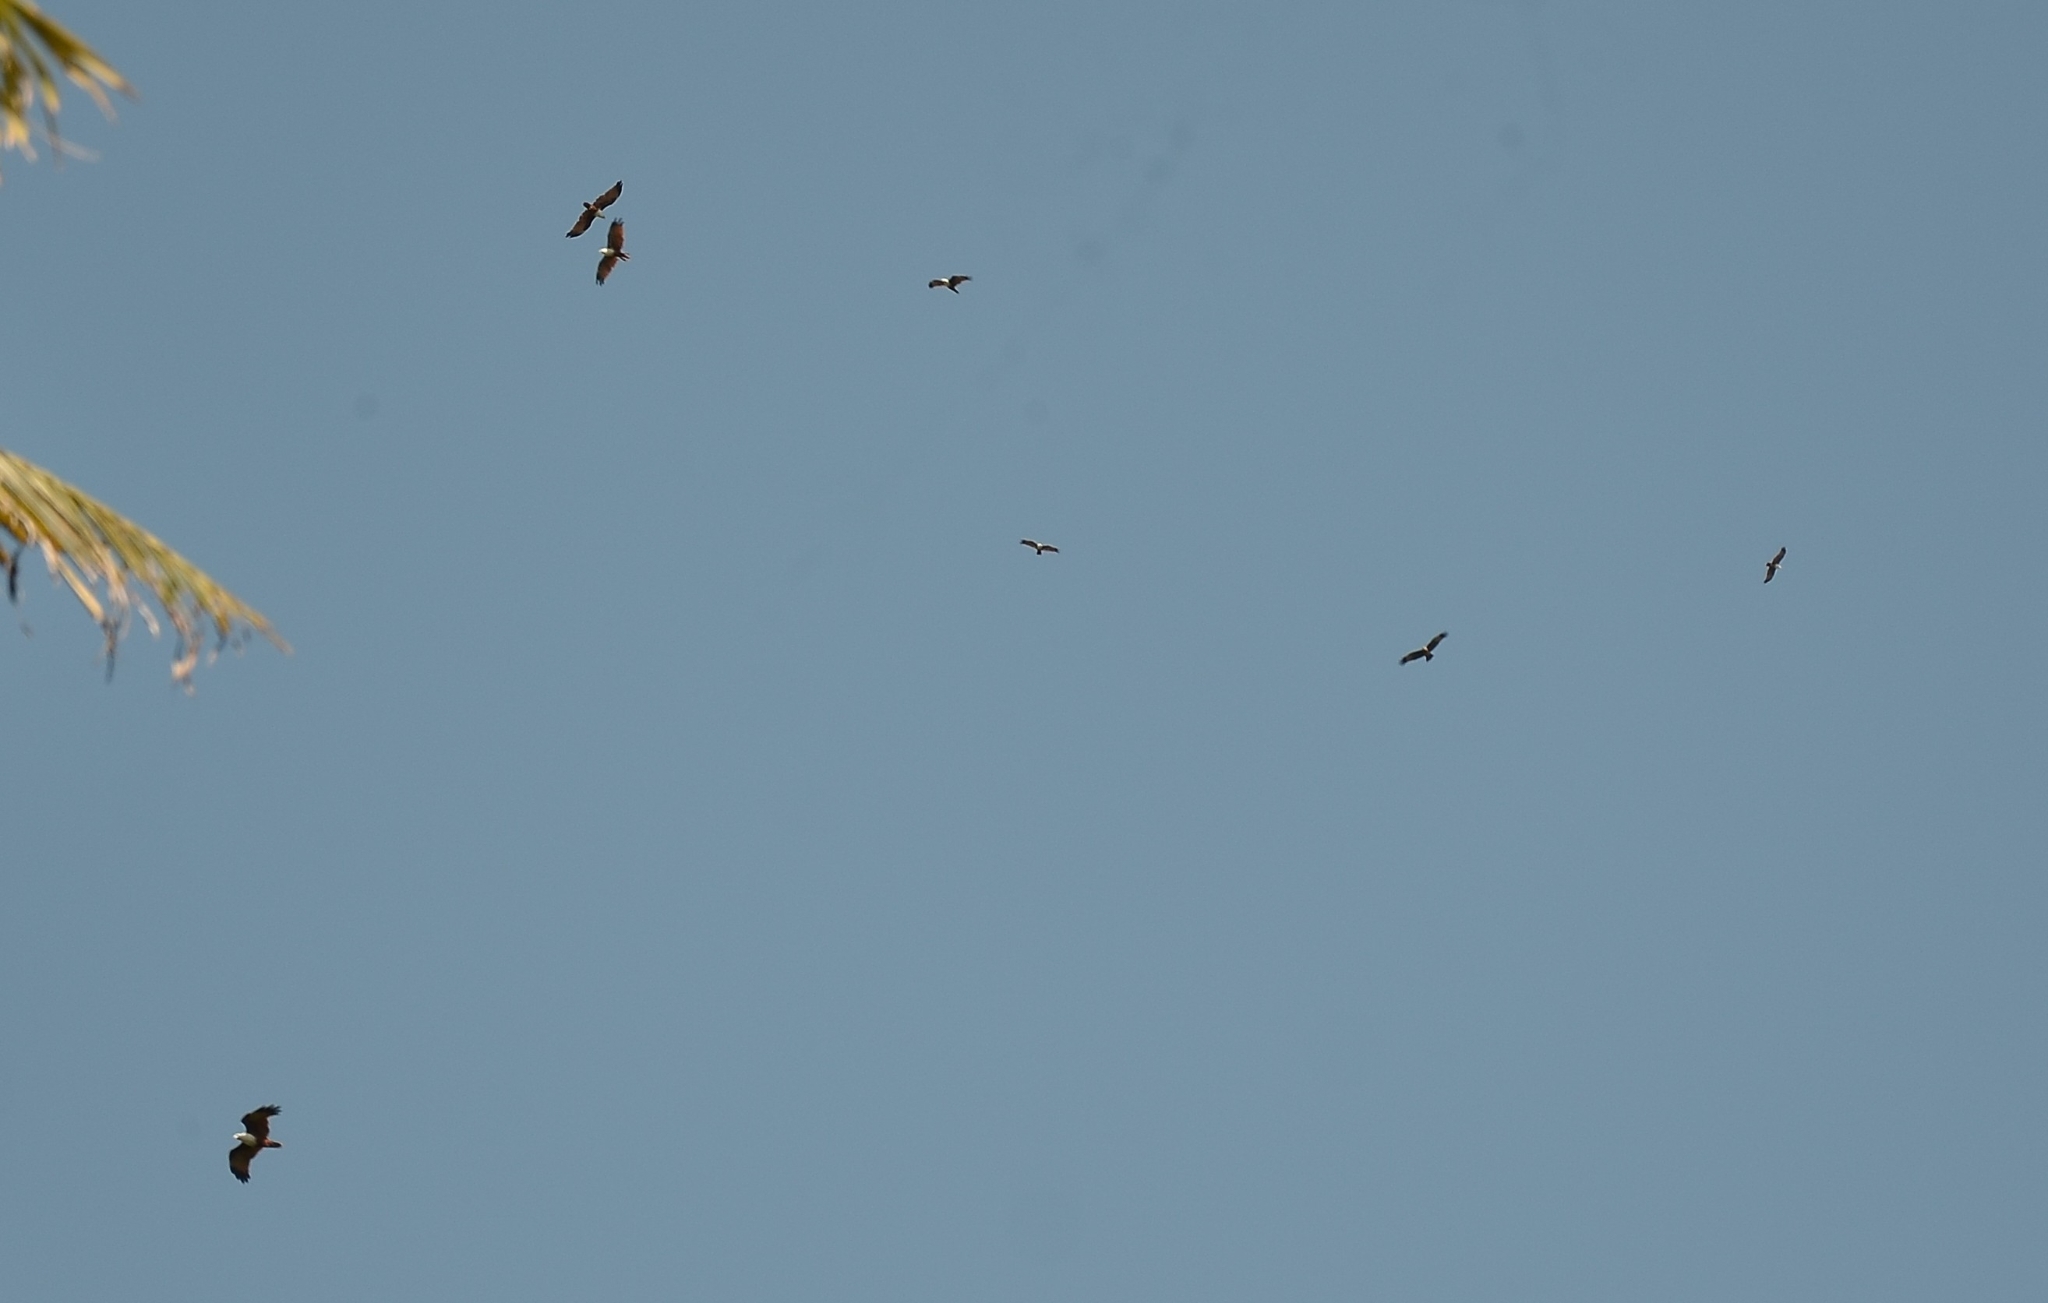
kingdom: Animalia
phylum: Chordata
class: Aves
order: Accipitriformes
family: Accipitridae
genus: Haliastur
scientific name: Haliastur indus
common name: Brahminy kite
